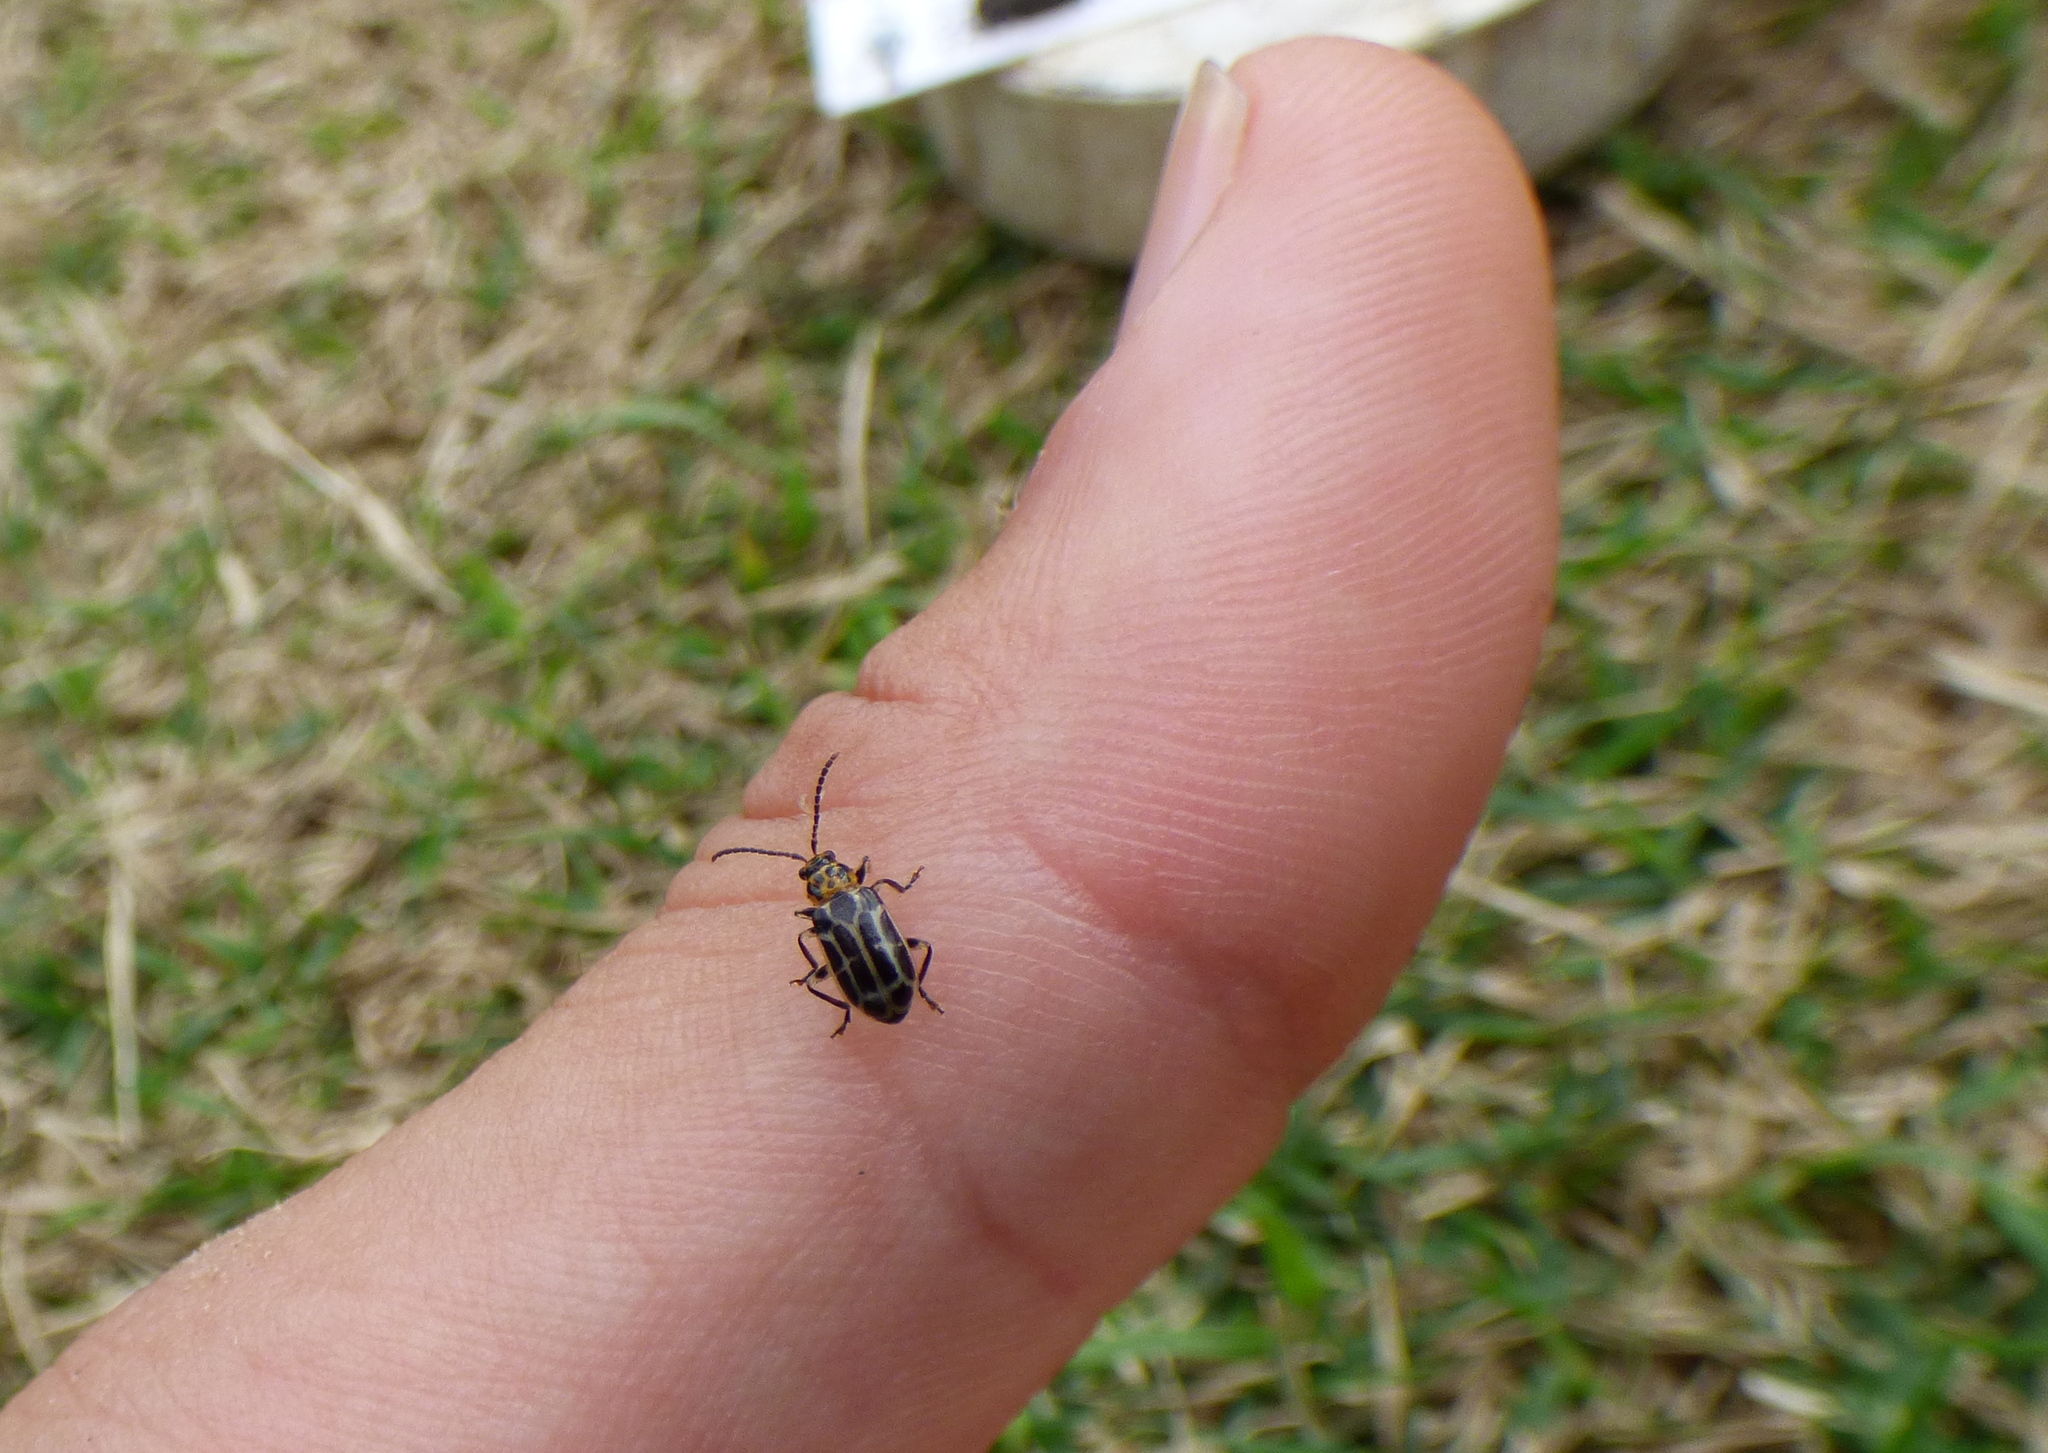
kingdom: Animalia
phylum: Arthropoda
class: Insecta
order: Coleoptera
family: Chrysomelidae
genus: Anisobrotica
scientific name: Anisobrotica
